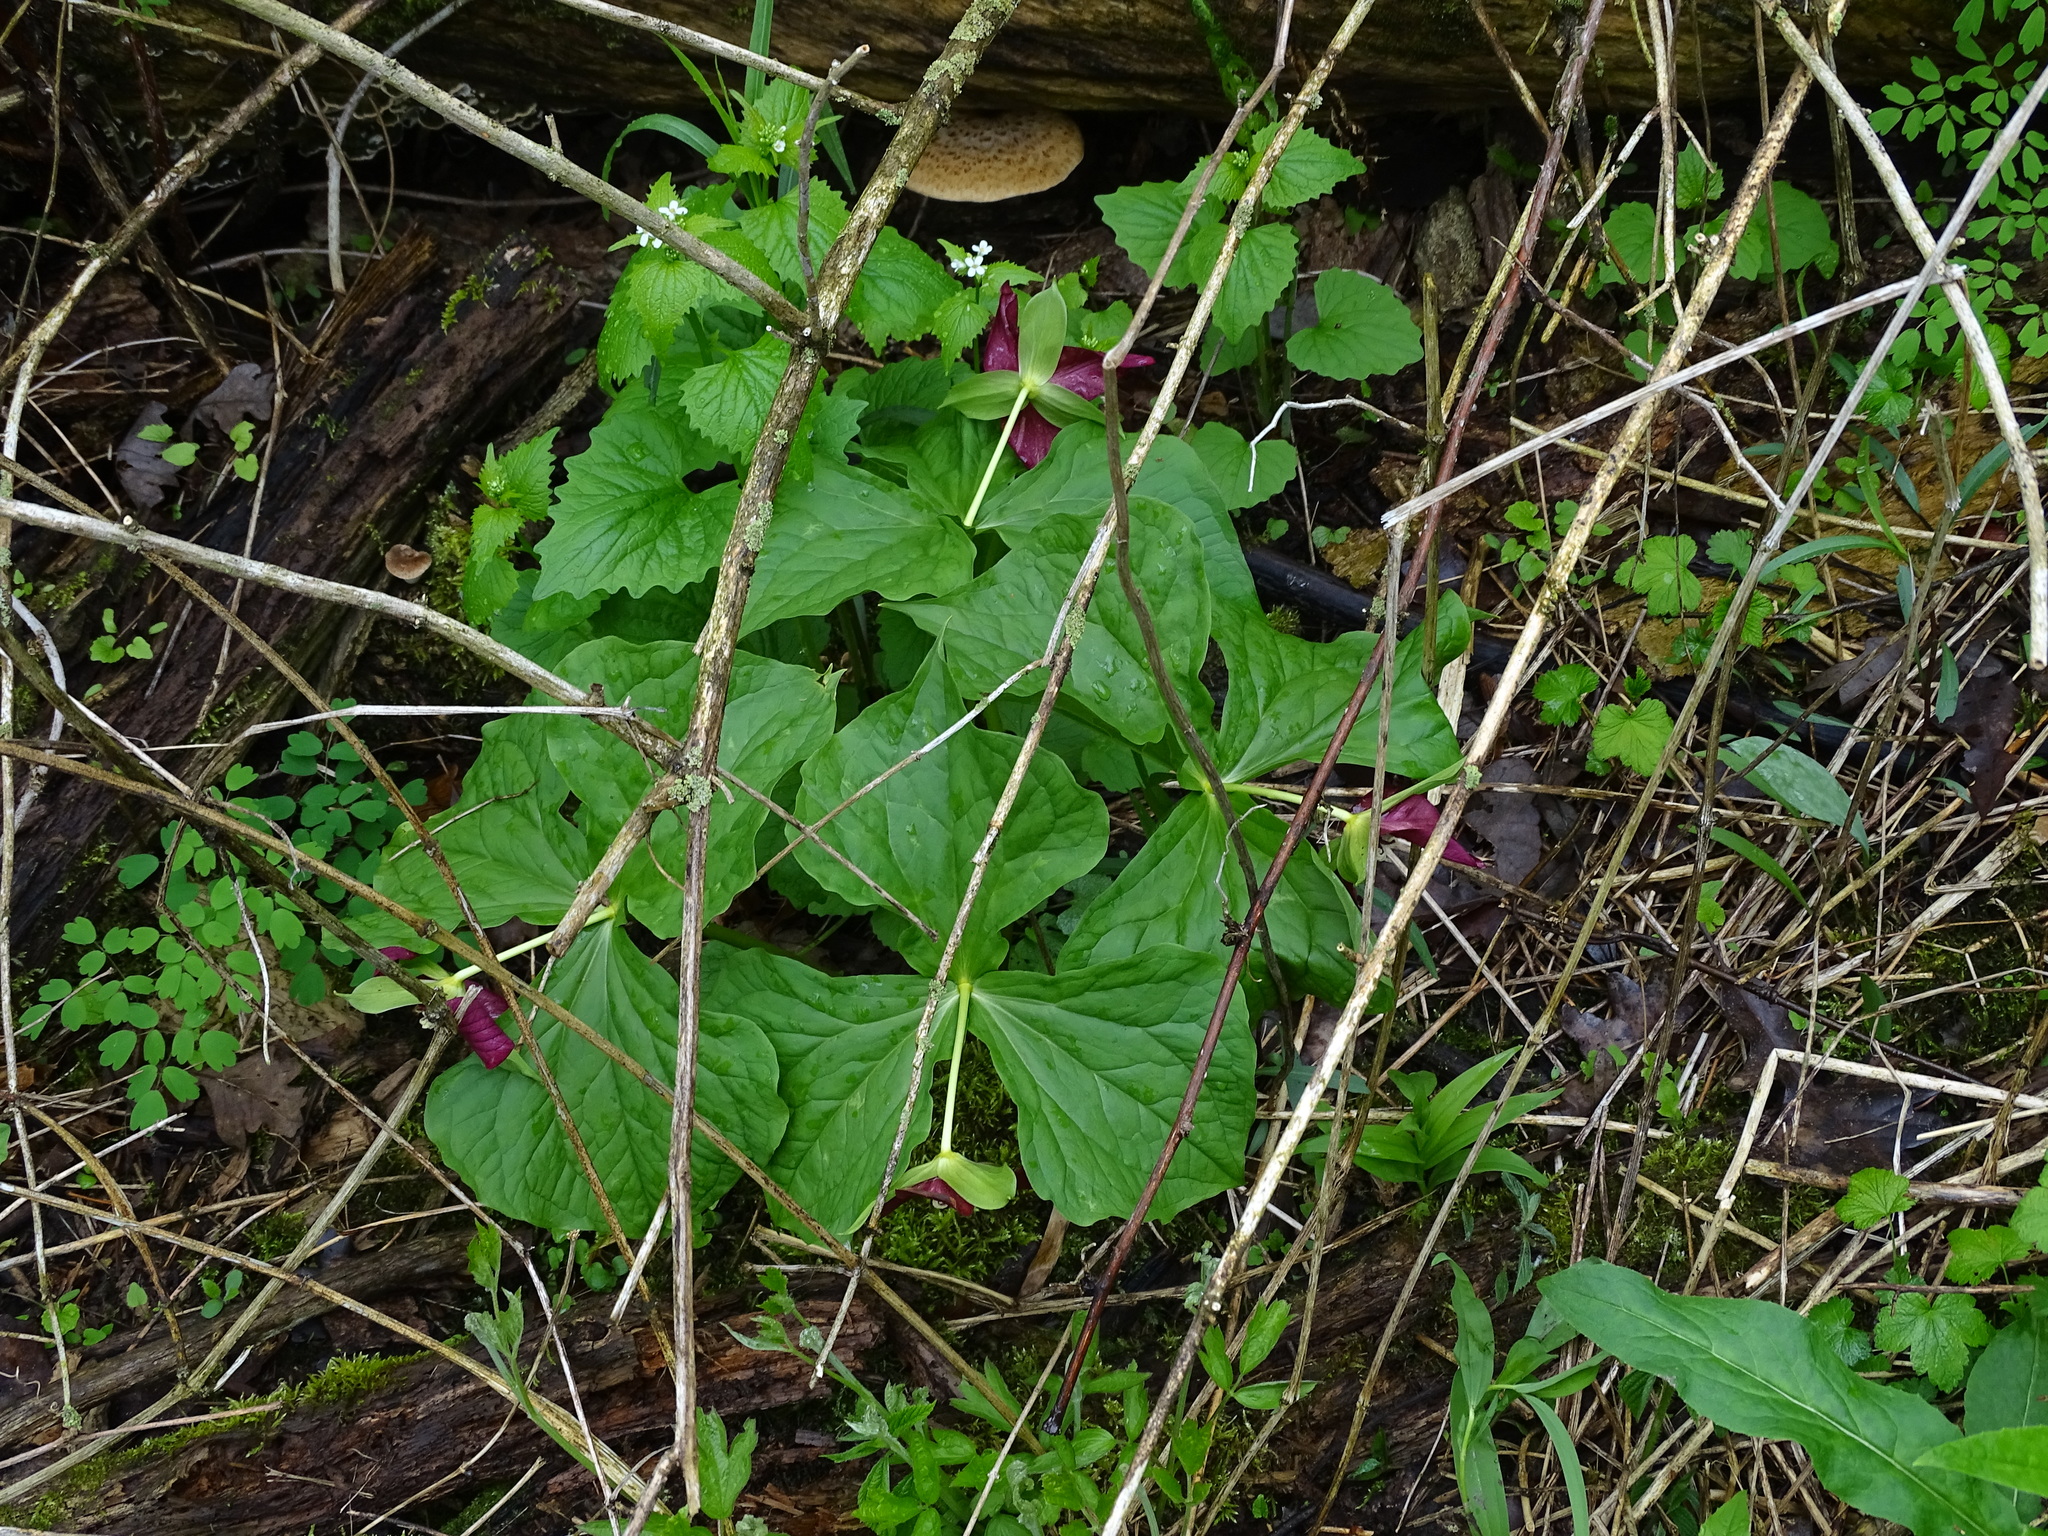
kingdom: Plantae
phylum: Tracheophyta
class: Liliopsida
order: Liliales
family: Melanthiaceae
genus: Trillium
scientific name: Trillium erectum
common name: Purple trillium
